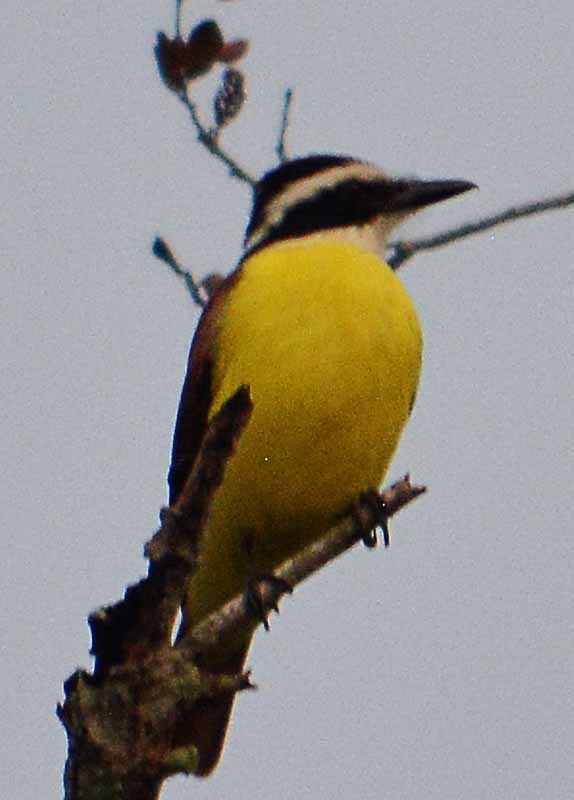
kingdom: Animalia
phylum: Chordata
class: Aves
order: Passeriformes
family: Tyrannidae
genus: Pitangus
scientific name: Pitangus sulphuratus
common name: Great kiskadee
